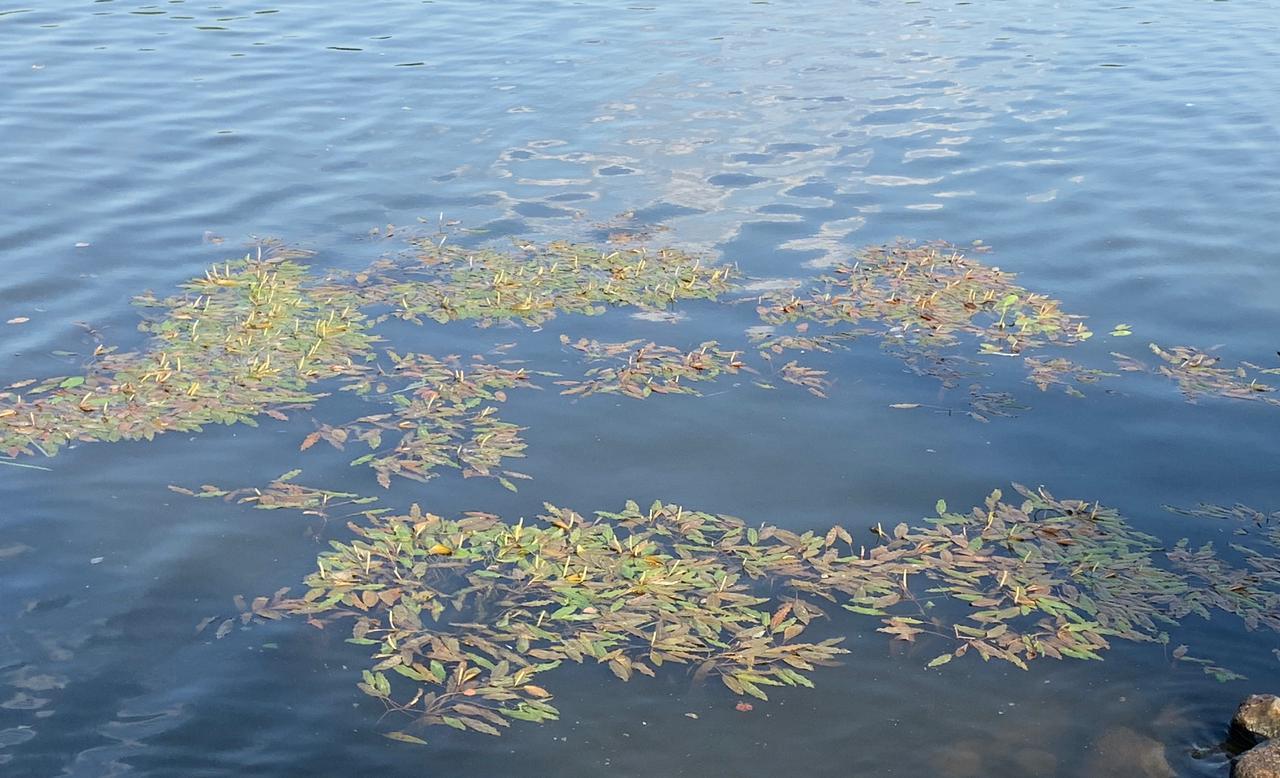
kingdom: Plantae
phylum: Tracheophyta
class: Liliopsida
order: Alismatales
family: Potamogetonaceae
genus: Potamogeton
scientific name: Potamogeton nodosus
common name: Loddon pondweed
